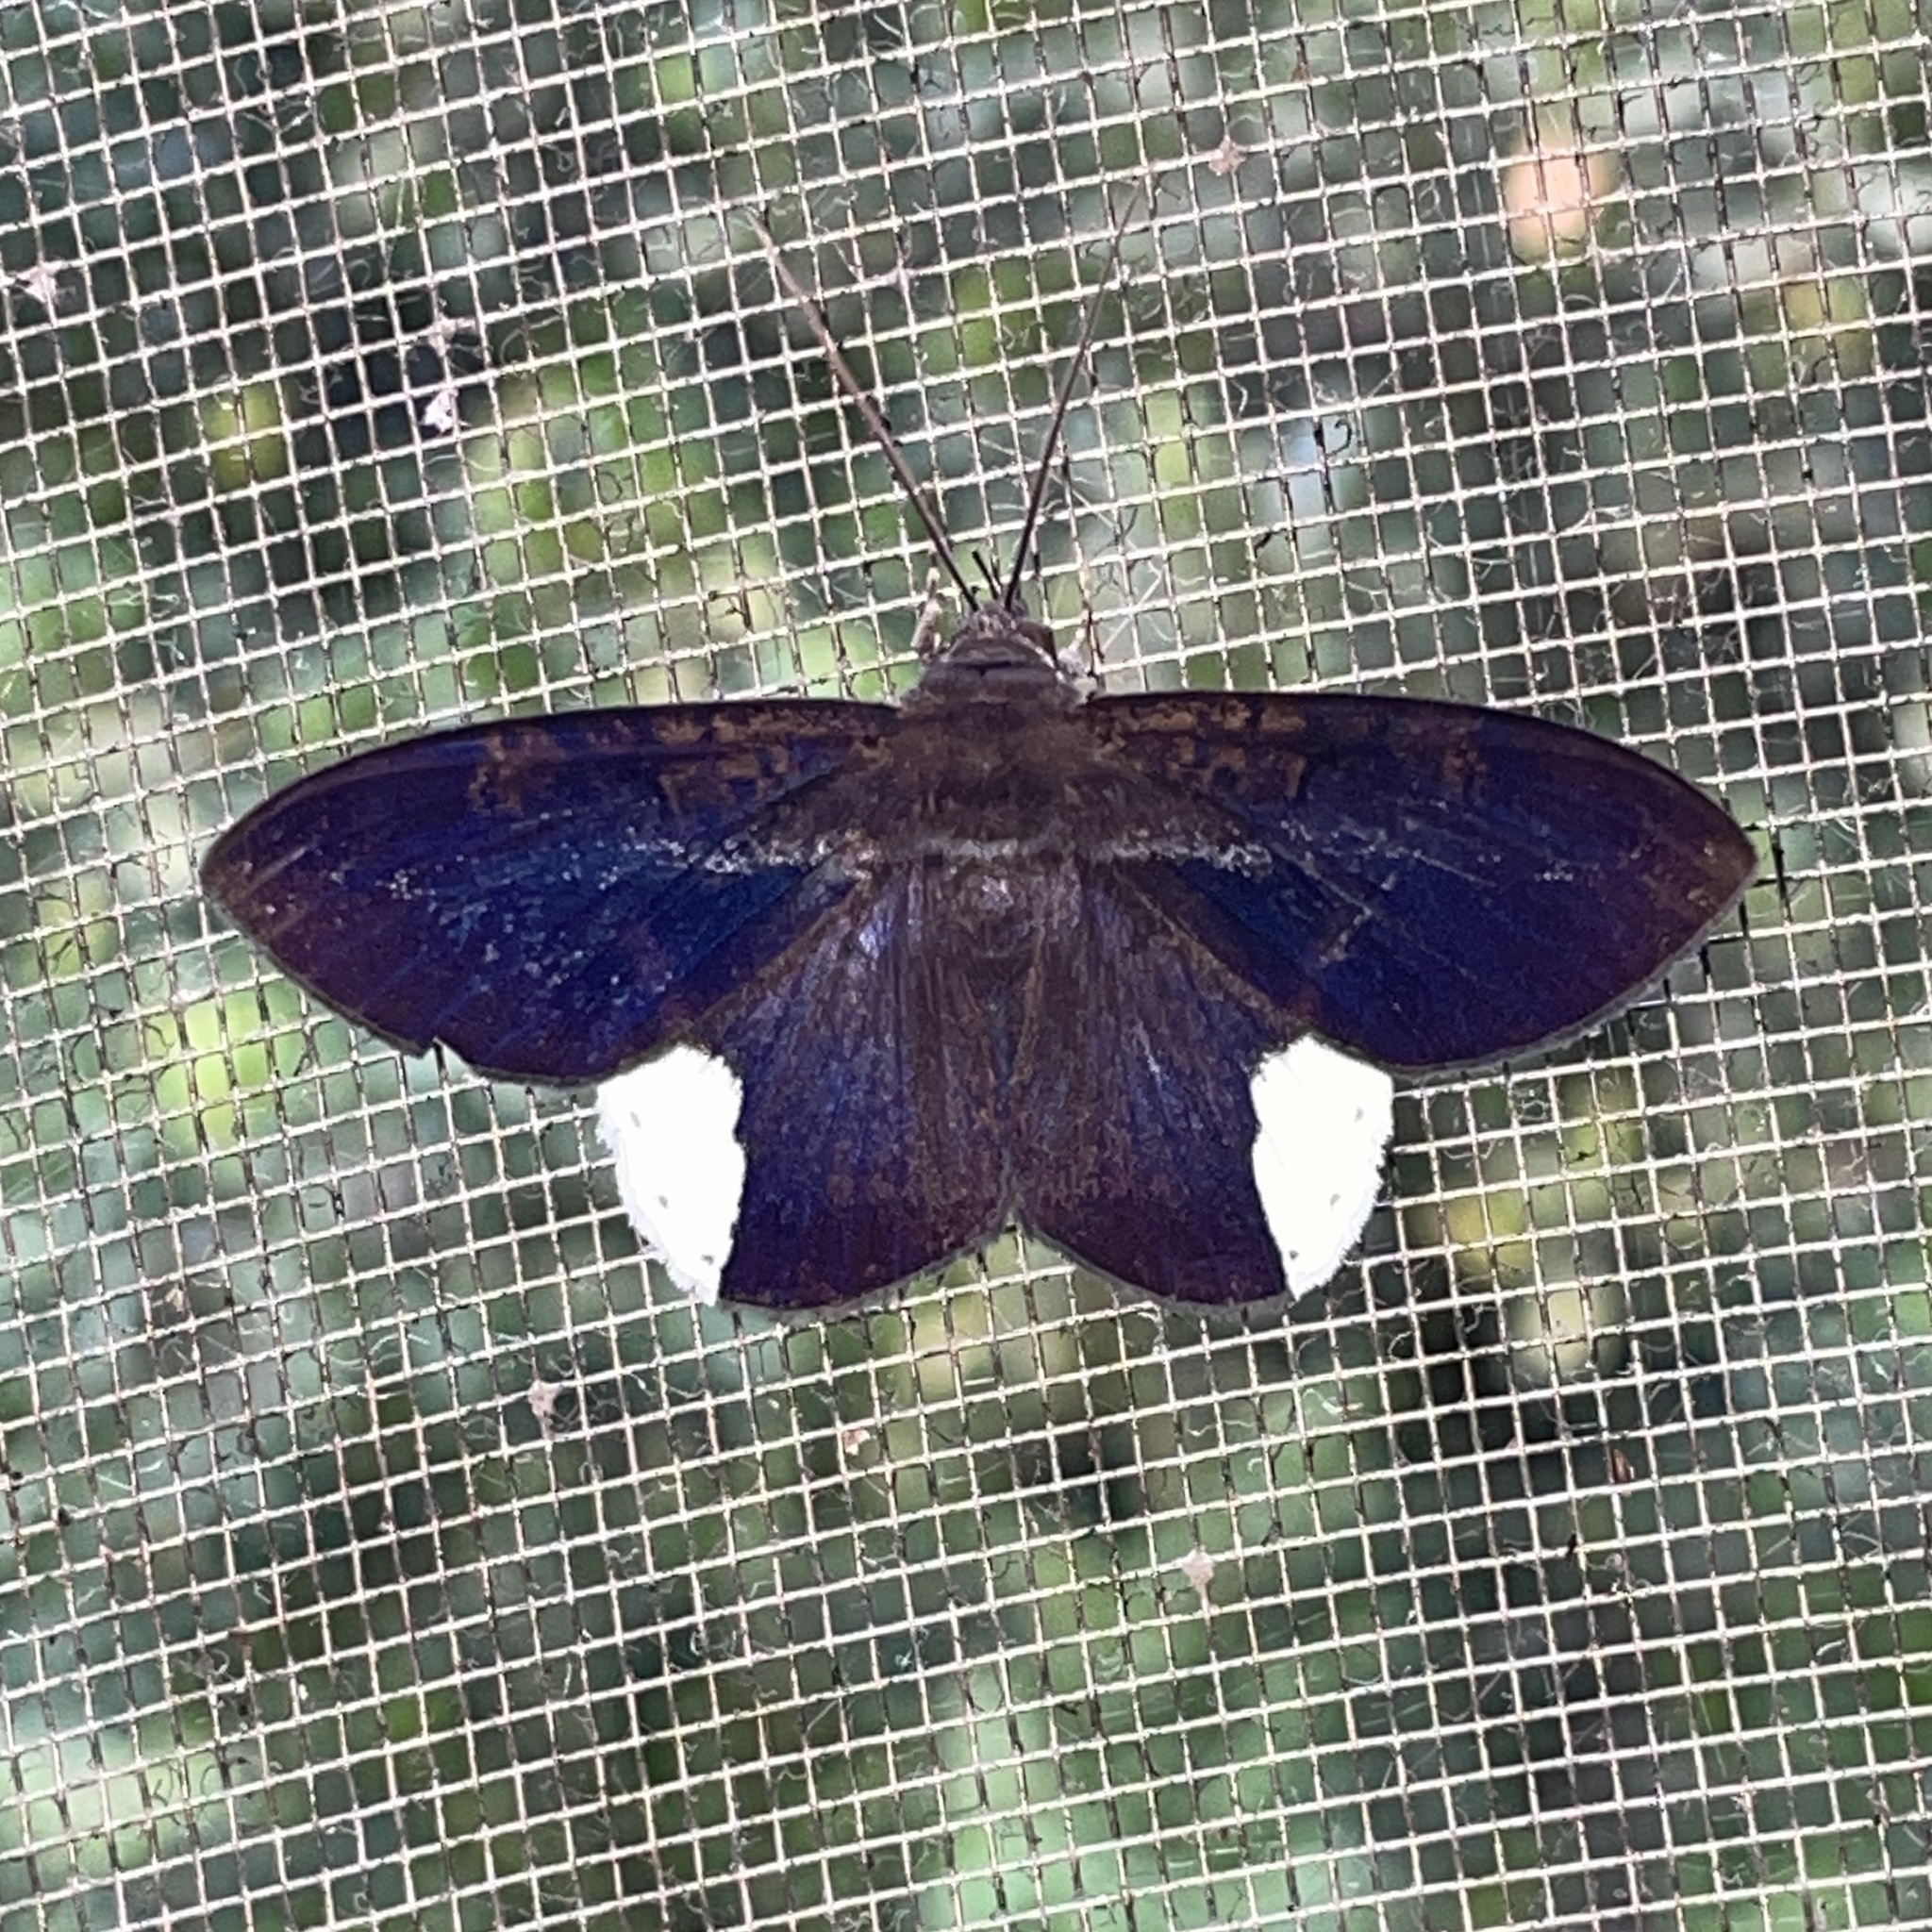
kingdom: Animalia
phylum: Arthropoda
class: Insecta
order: Lepidoptera
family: Erebidae
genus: Hemeroblemma
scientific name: Hemeroblemma leontia
